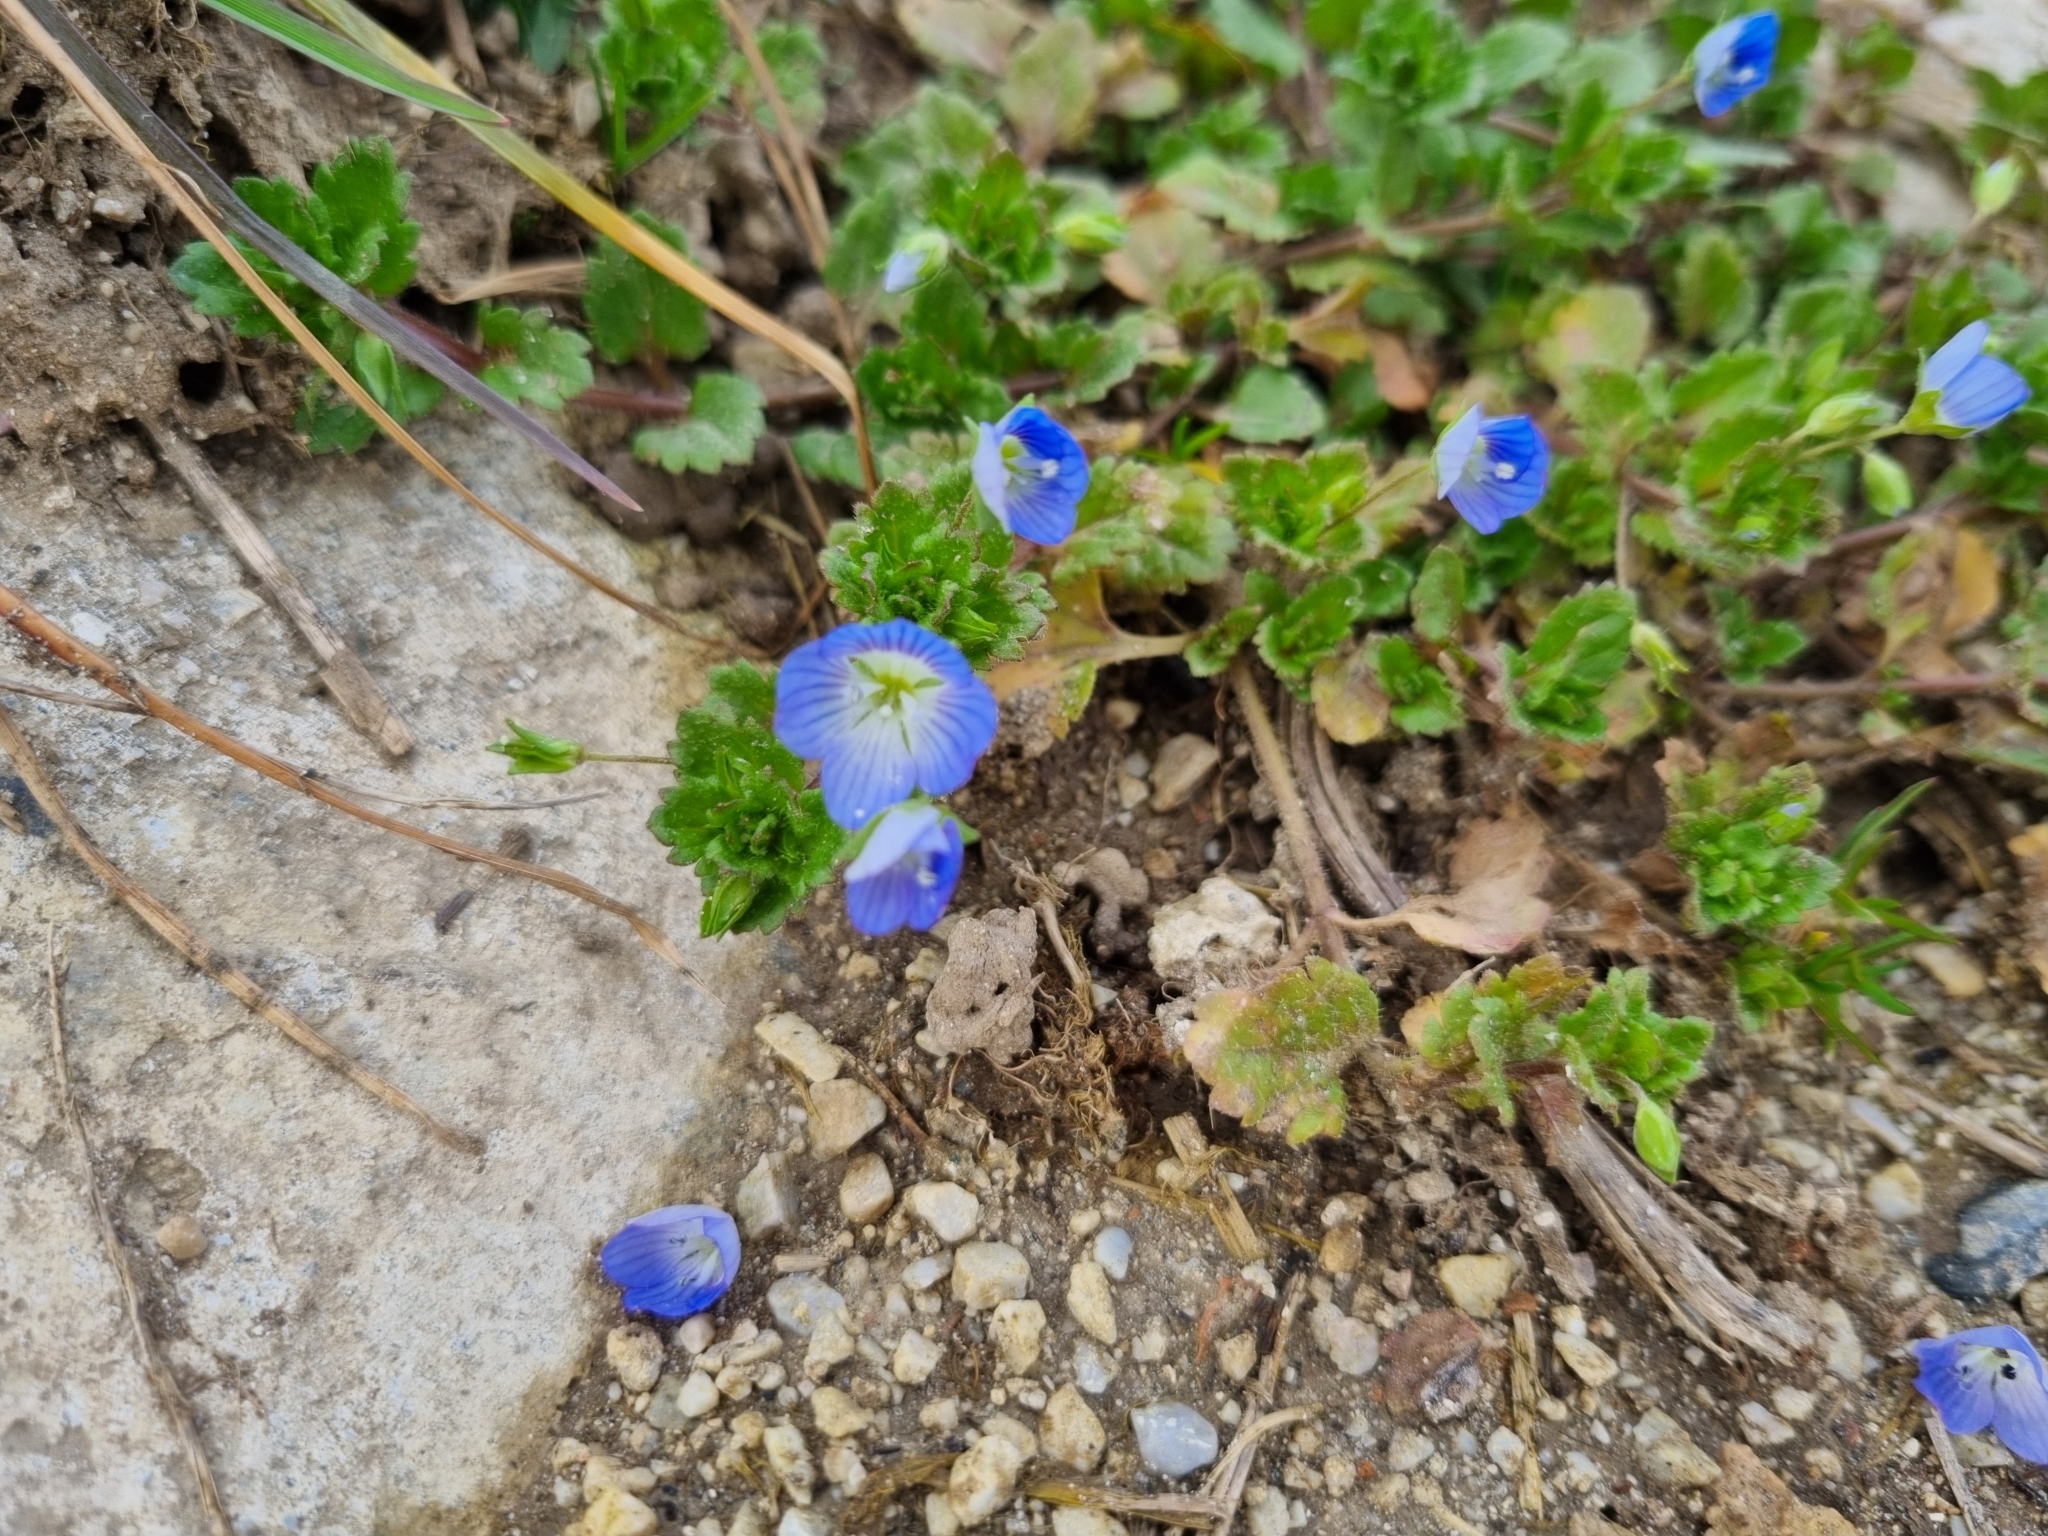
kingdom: Plantae
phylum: Tracheophyta
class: Magnoliopsida
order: Lamiales
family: Plantaginaceae
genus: Veronica
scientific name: Veronica persica
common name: Common field-speedwell
